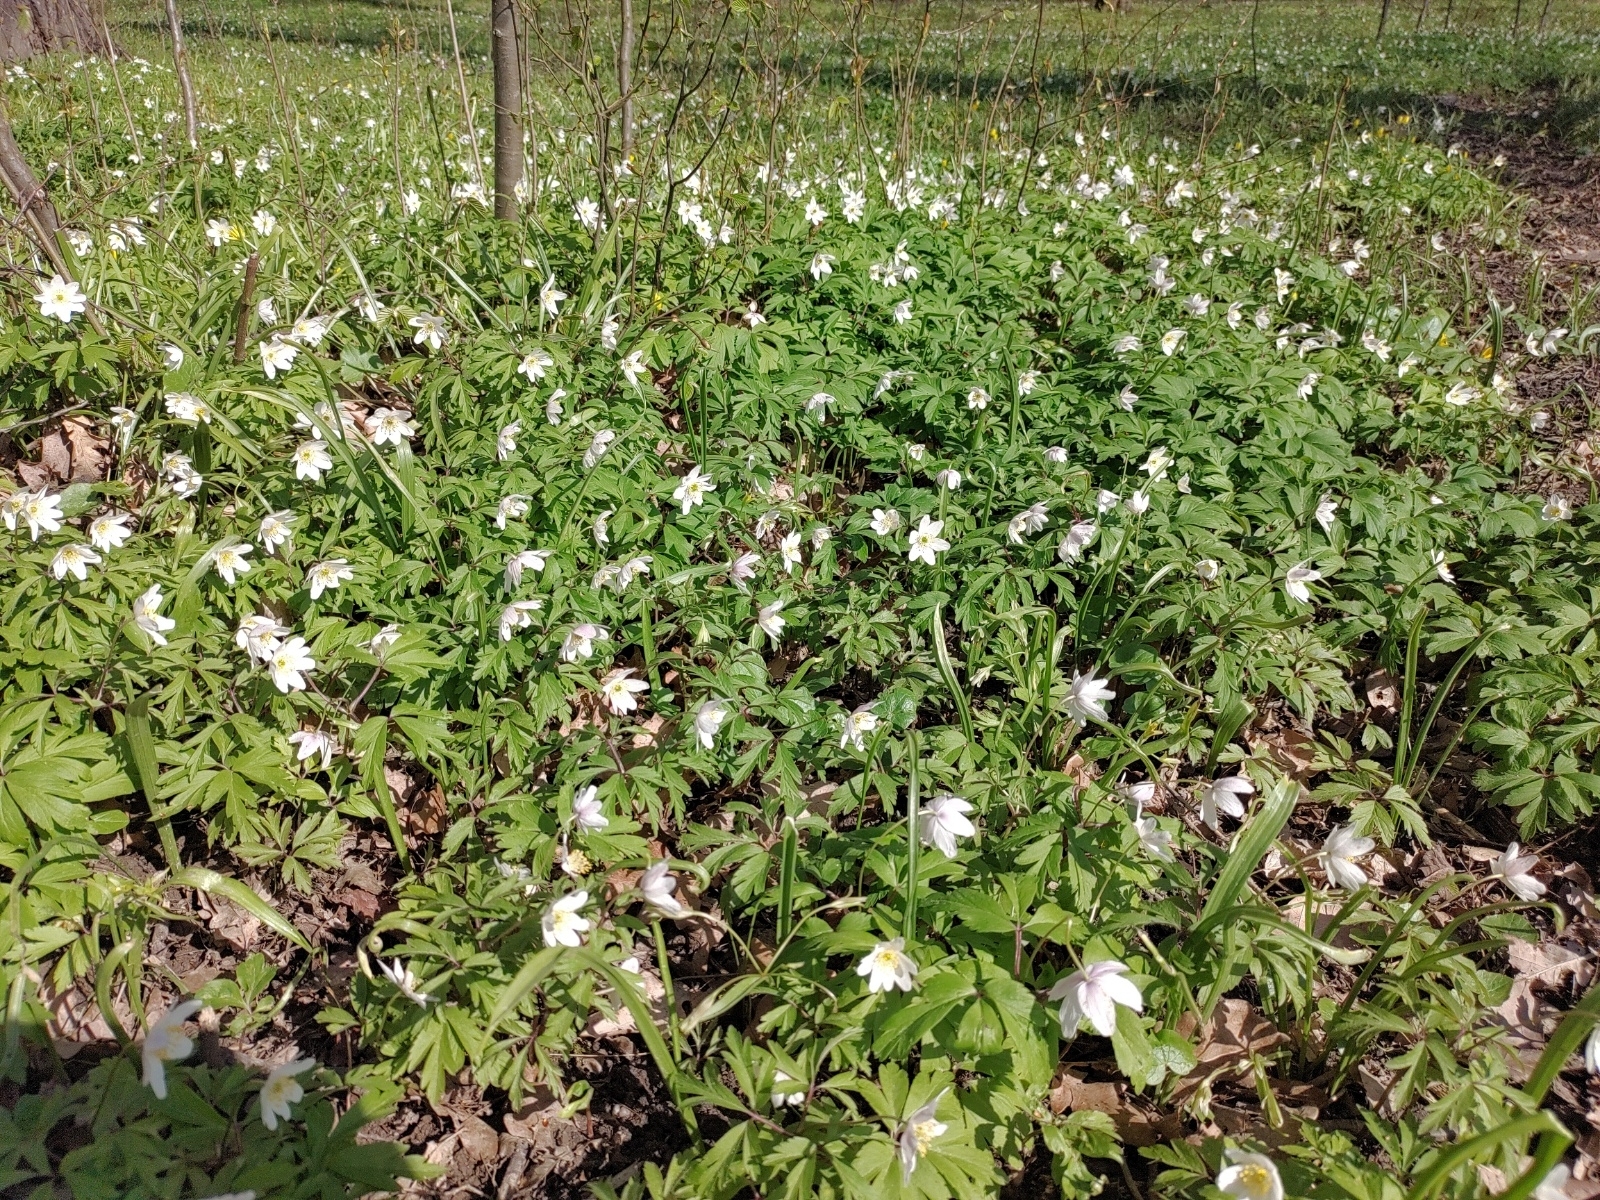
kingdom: Plantae
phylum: Tracheophyta
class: Magnoliopsida
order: Ranunculales
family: Ranunculaceae
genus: Anemone
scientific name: Anemone nemorosa
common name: Wood anemone
